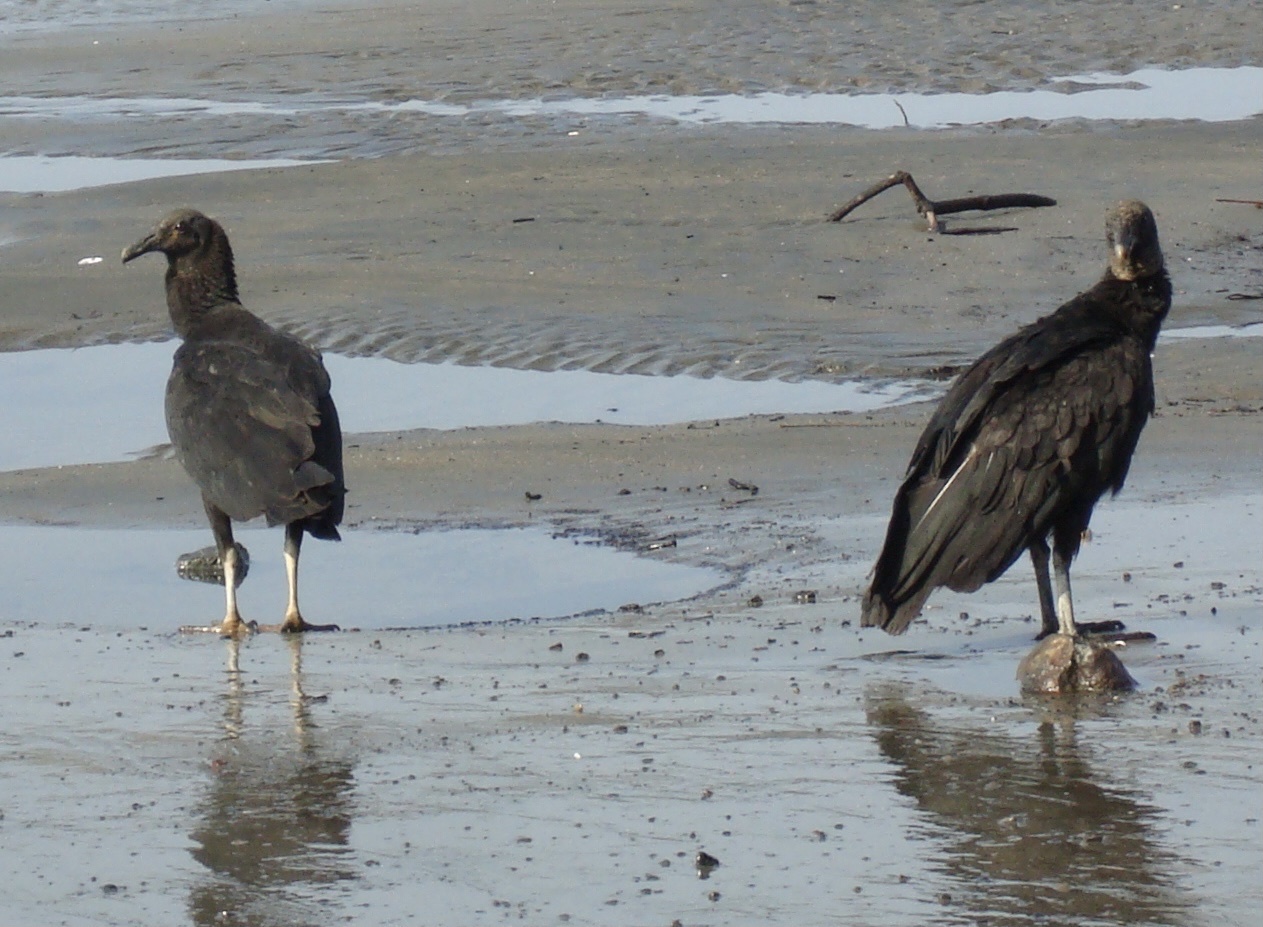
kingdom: Animalia
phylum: Chordata
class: Aves
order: Accipitriformes
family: Cathartidae
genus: Coragyps
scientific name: Coragyps atratus
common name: Black vulture
